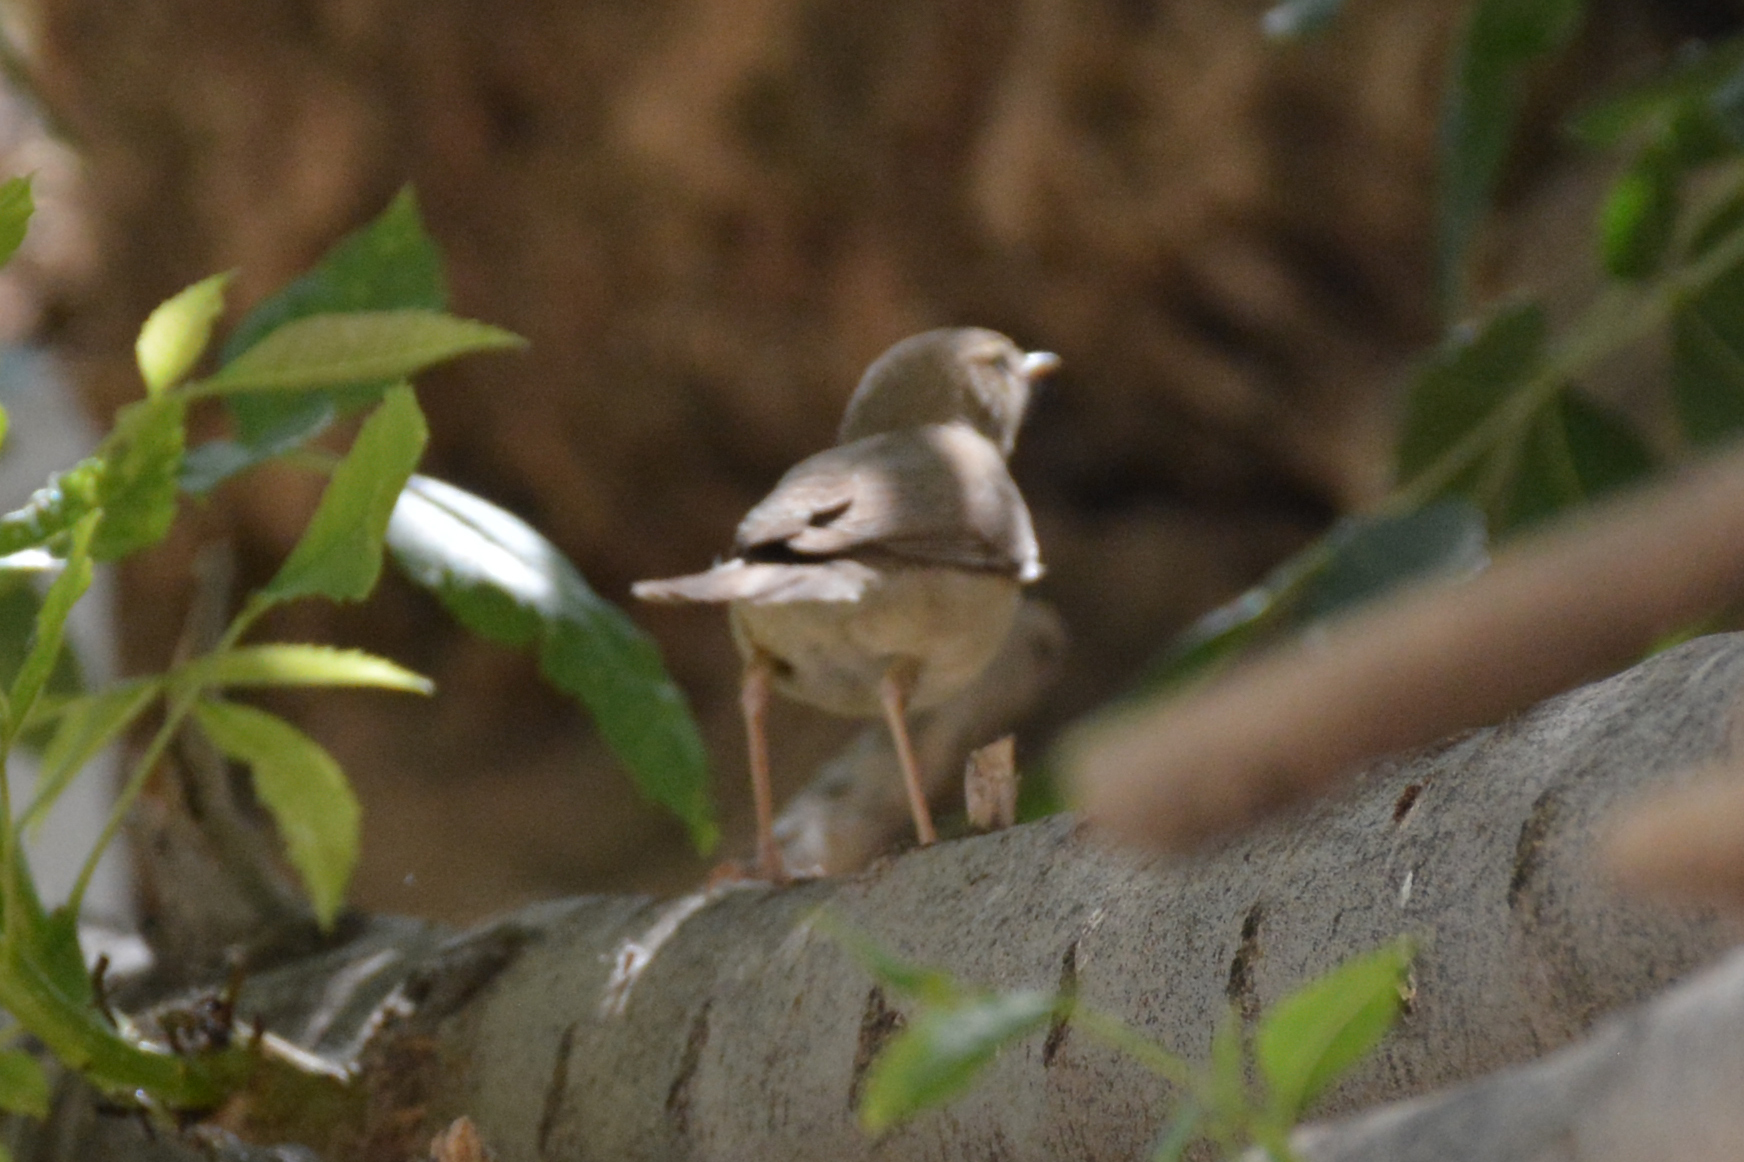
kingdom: Animalia
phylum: Chordata
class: Aves
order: Passeriformes
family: Acrocephalidae
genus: Iduna
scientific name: Iduna rama
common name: Sykes's warbler
